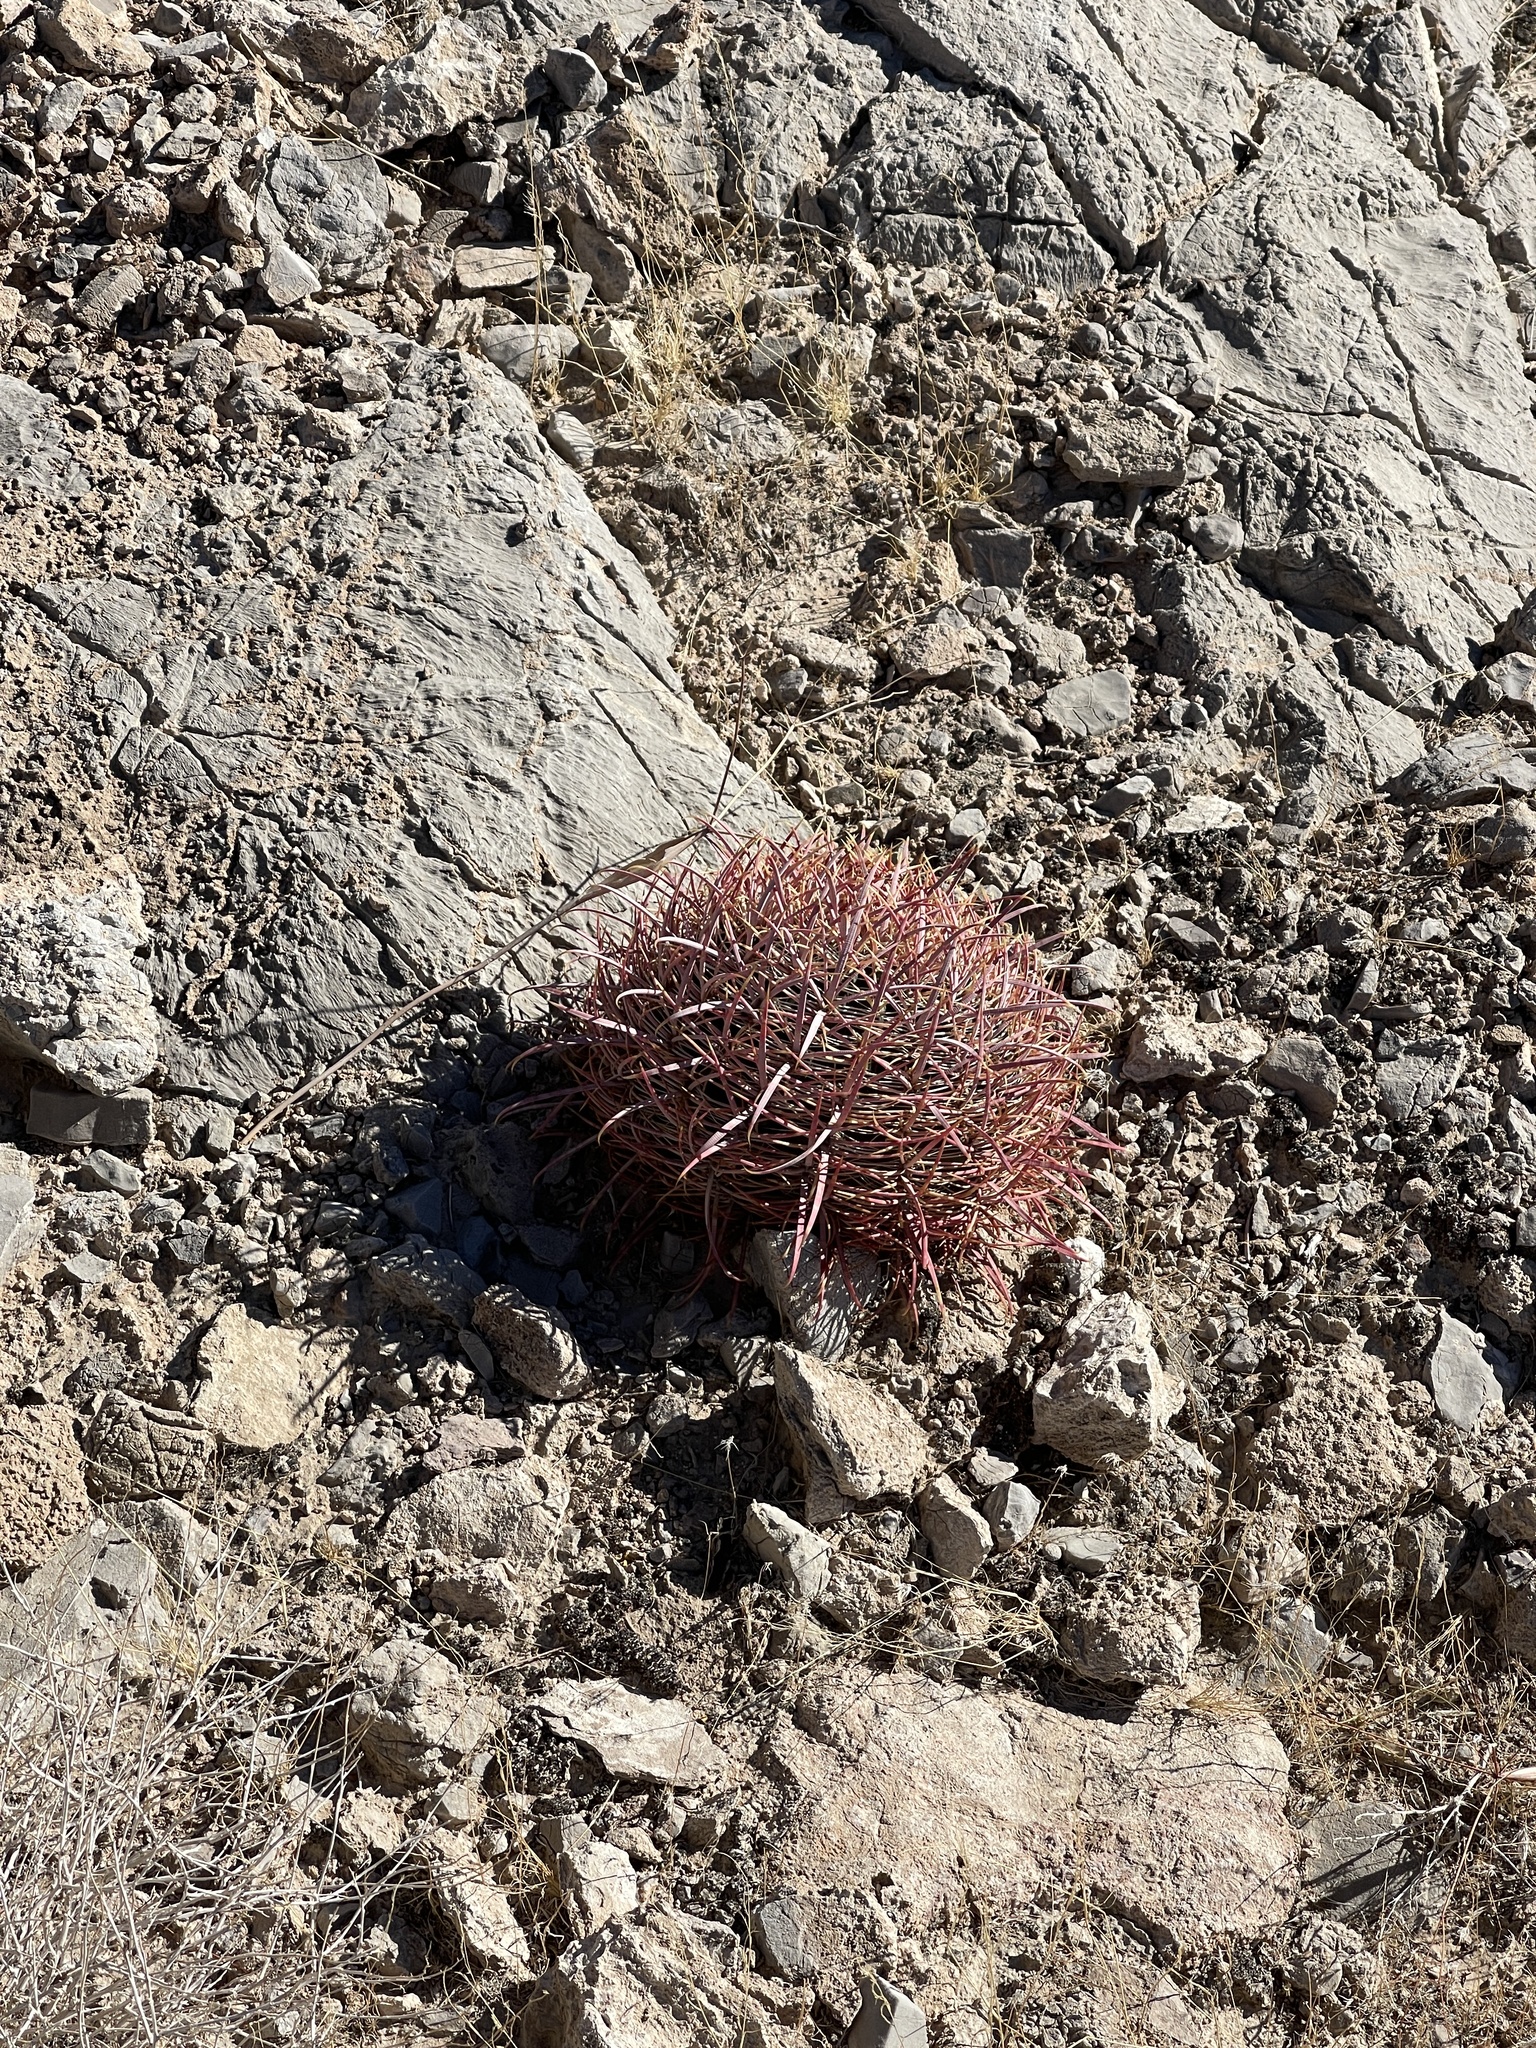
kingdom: Plantae
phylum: Tracheophyta
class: Magnoliopsida
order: Caryophyllales
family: Cactaceae
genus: Ferocactus
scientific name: Ferocactus cylindraceus
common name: California barrel cactus
